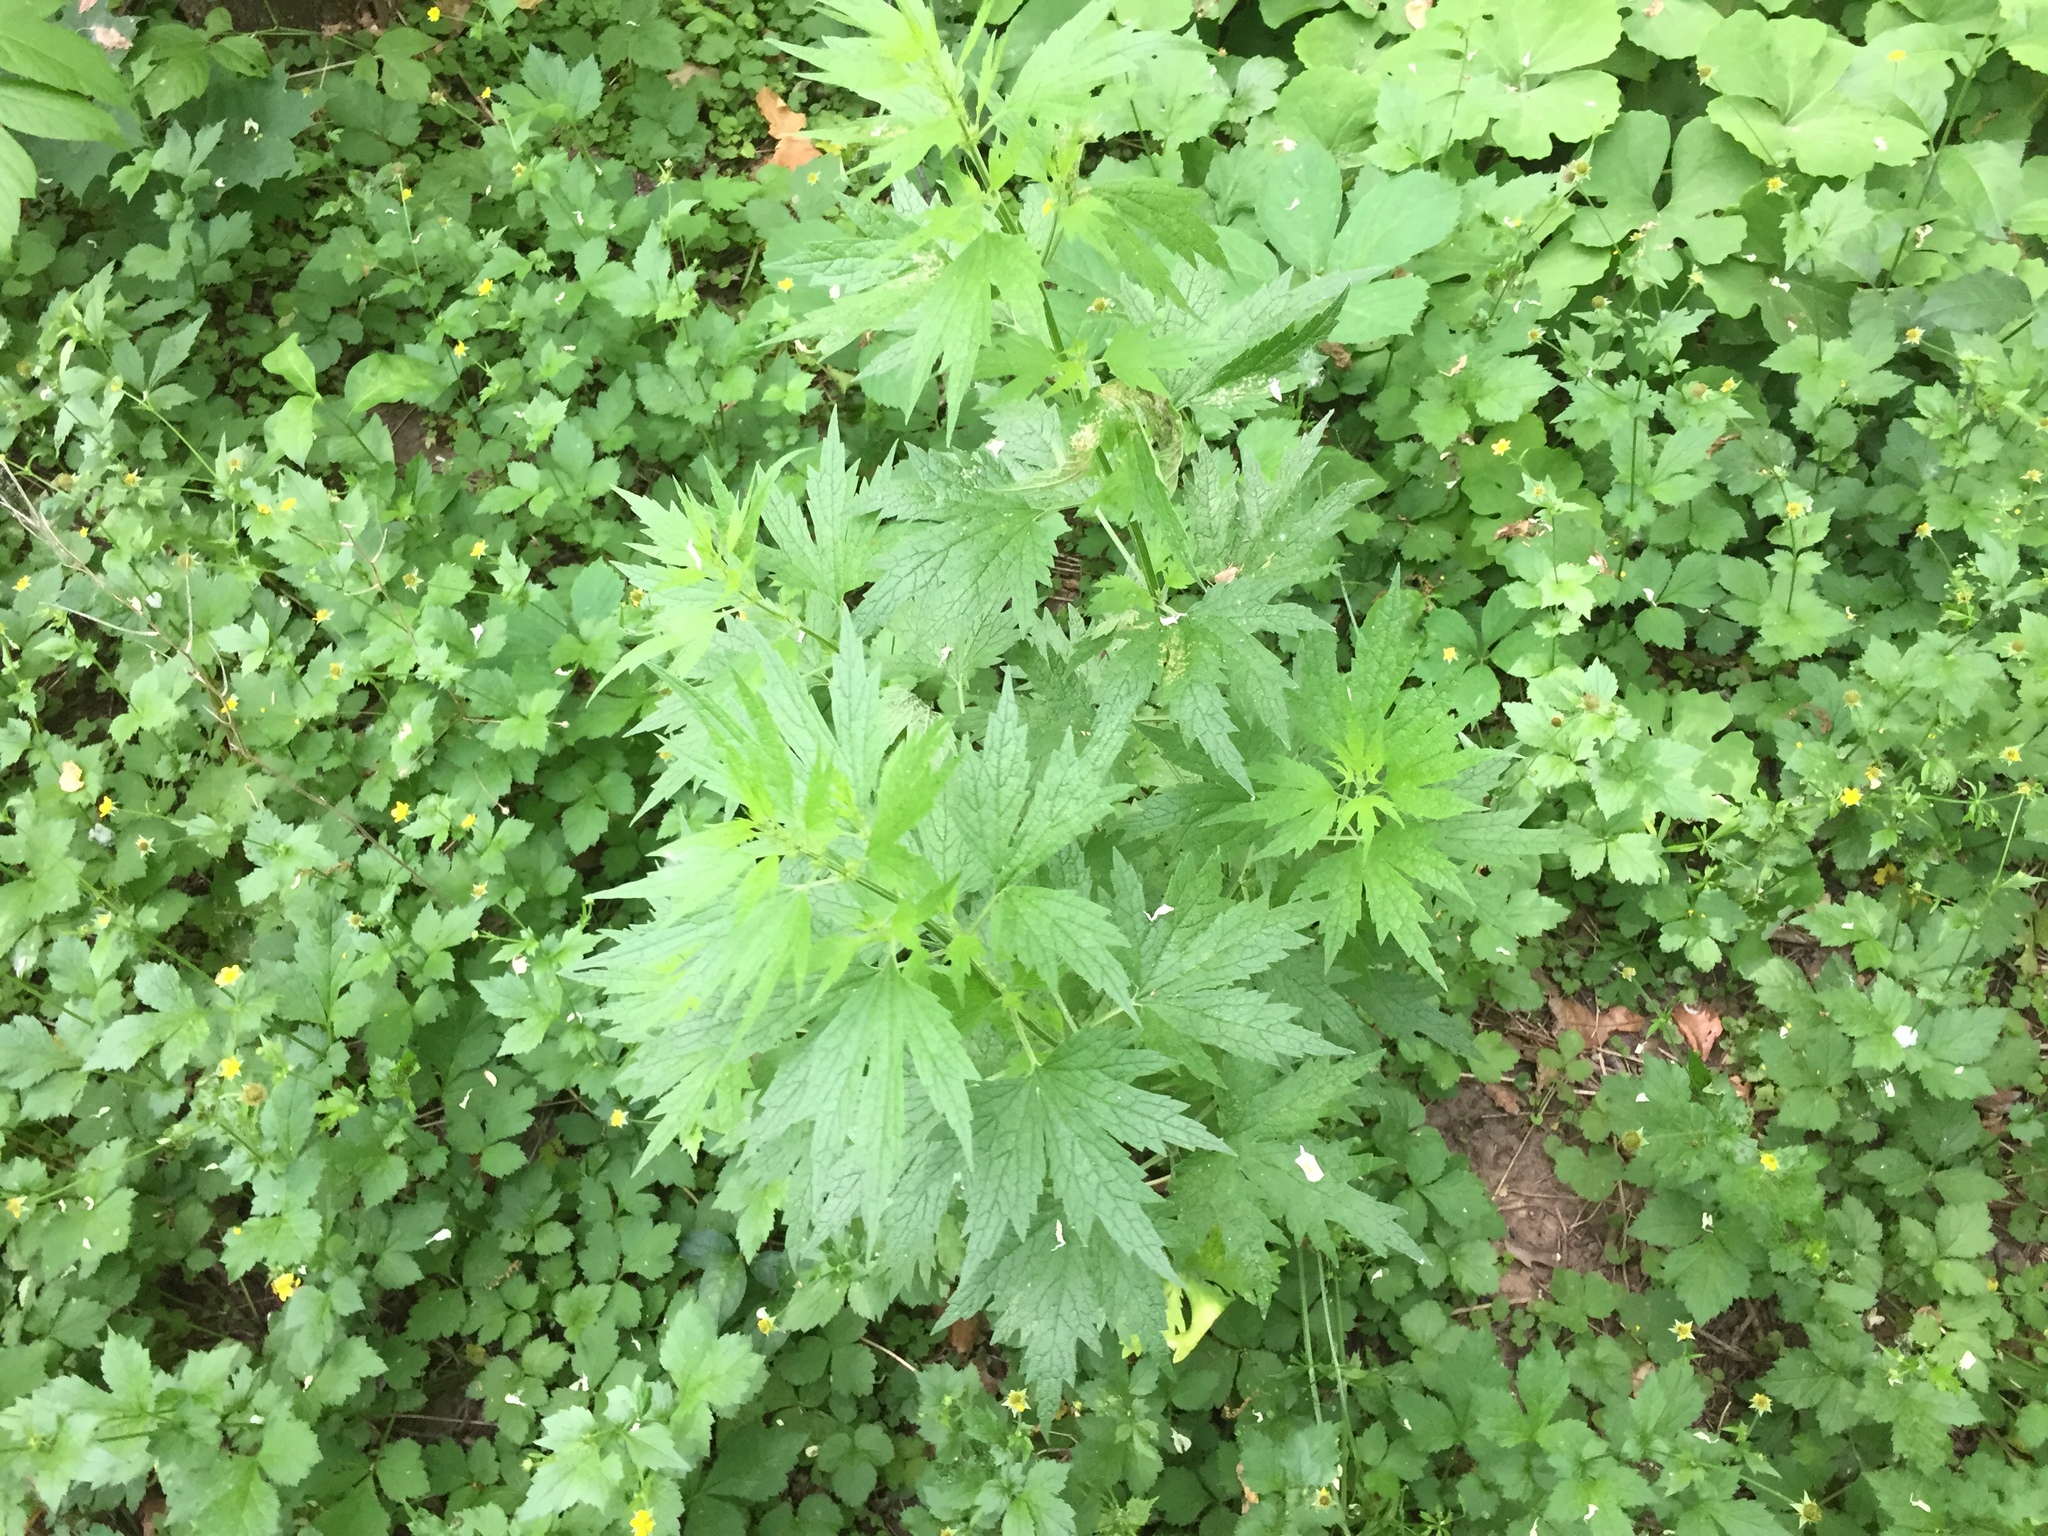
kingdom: Plantae
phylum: Tracheophyta
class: Magnoliopsida
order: Lamiales
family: Lamiaceae
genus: Leonurus
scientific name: Leonurus cardiaca
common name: Motherwort
